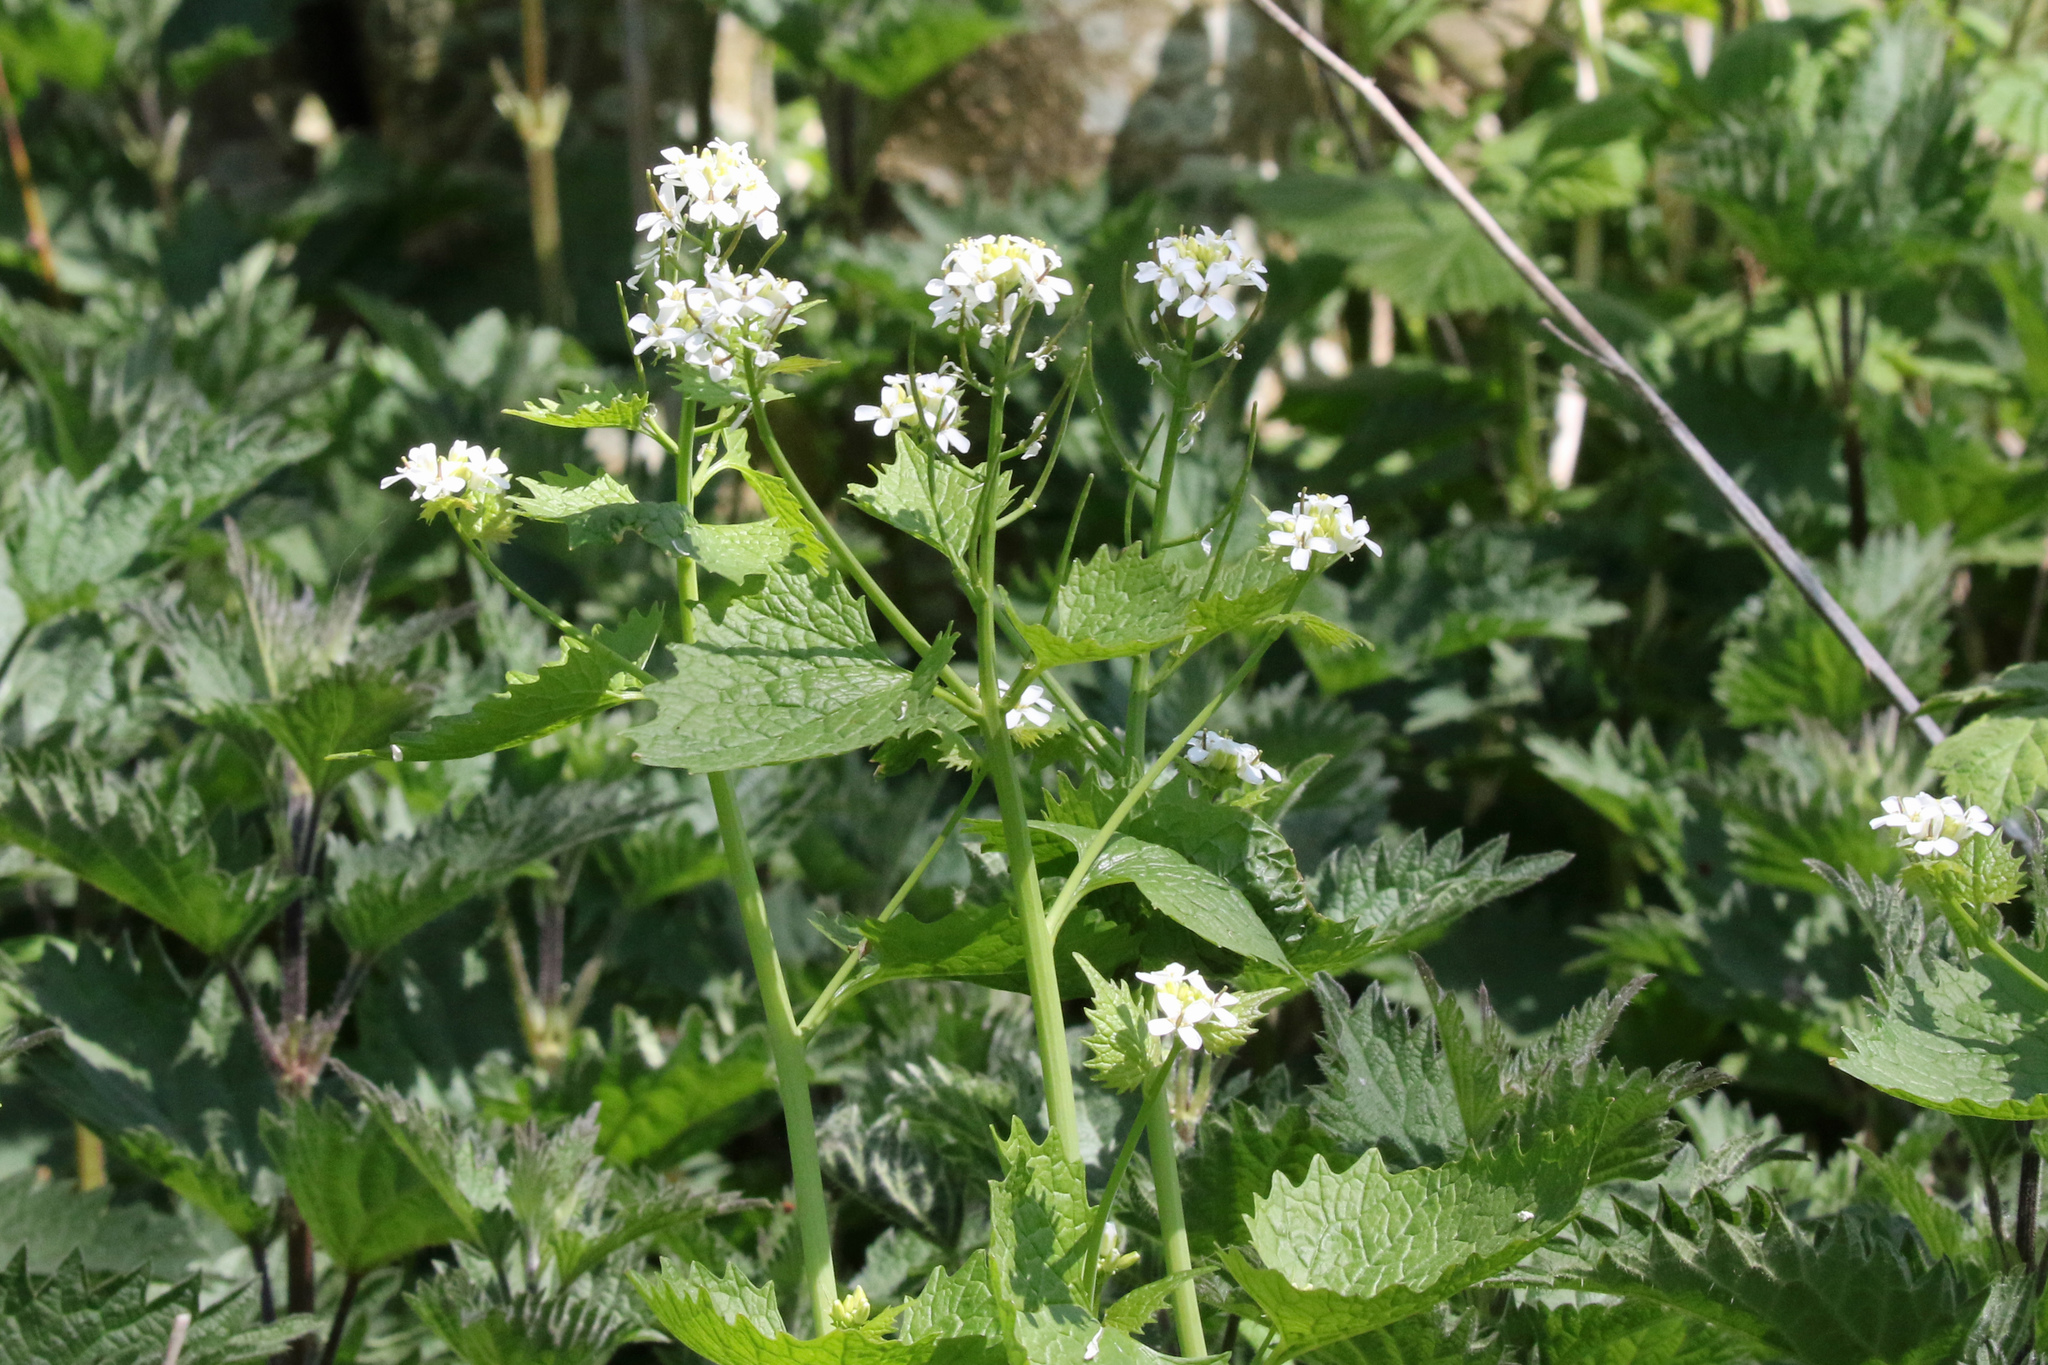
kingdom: Plantae
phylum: Tracheophyta
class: Magnoliopsida
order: Brassicales
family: Brassicaceae
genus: Alliaria
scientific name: Alliaria petiolata
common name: Garlic mustard
